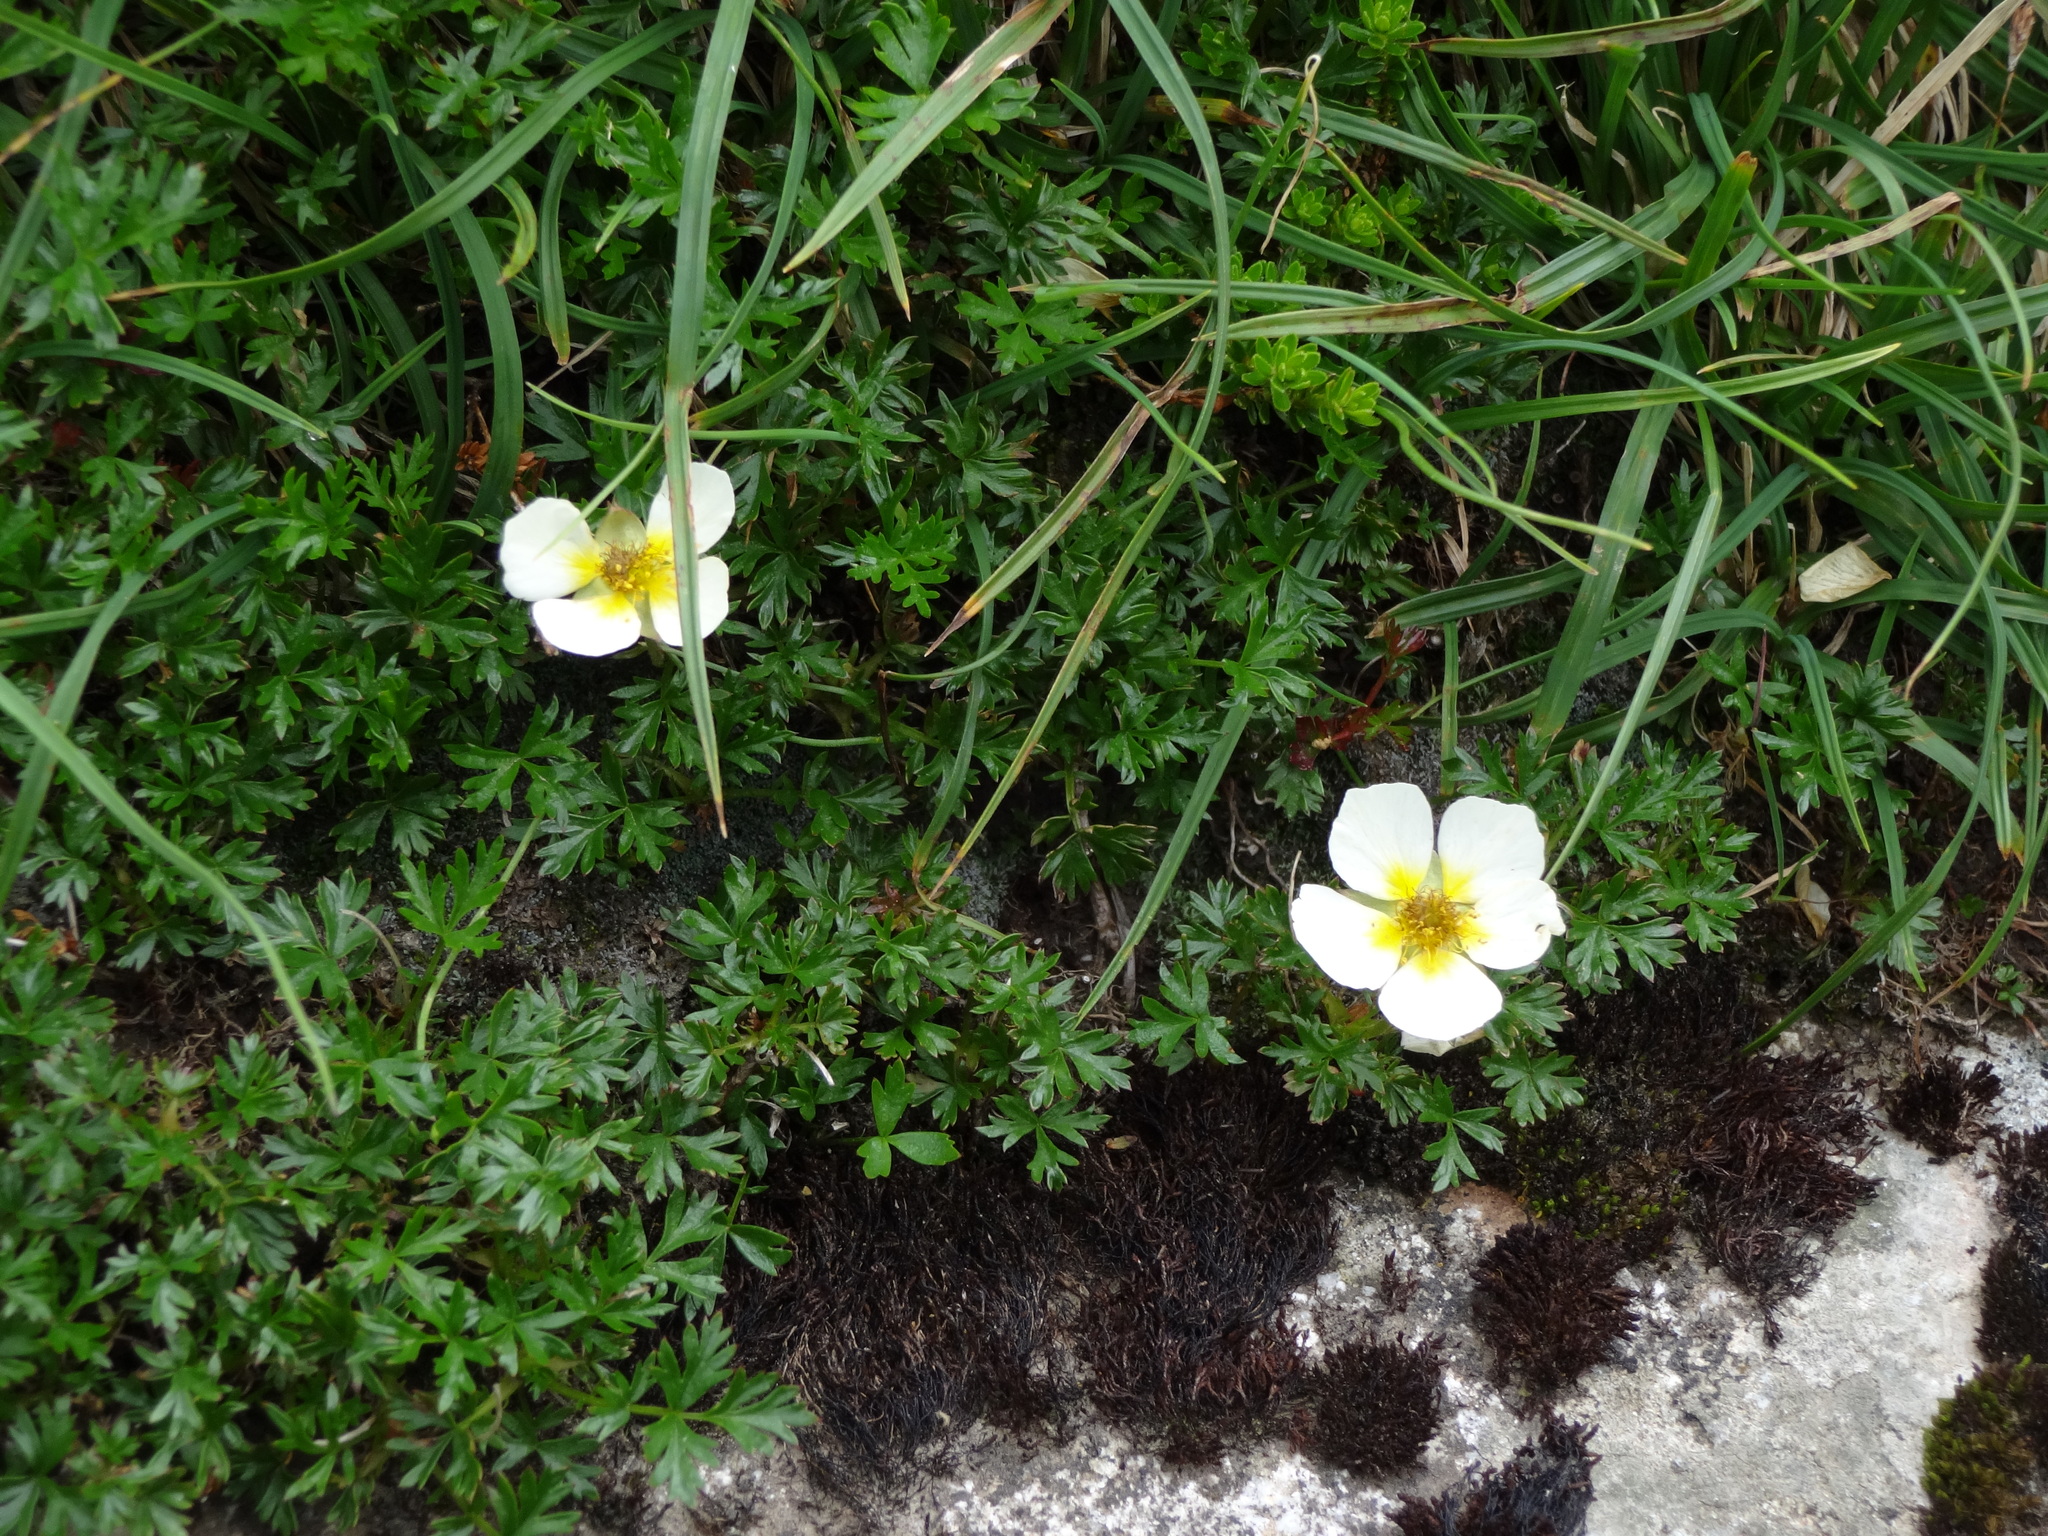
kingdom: Plantae
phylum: Tracheophyta
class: Magnoliopsida
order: Rosales
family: Rosaceae
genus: Sieversia
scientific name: Sieversia pusilla
